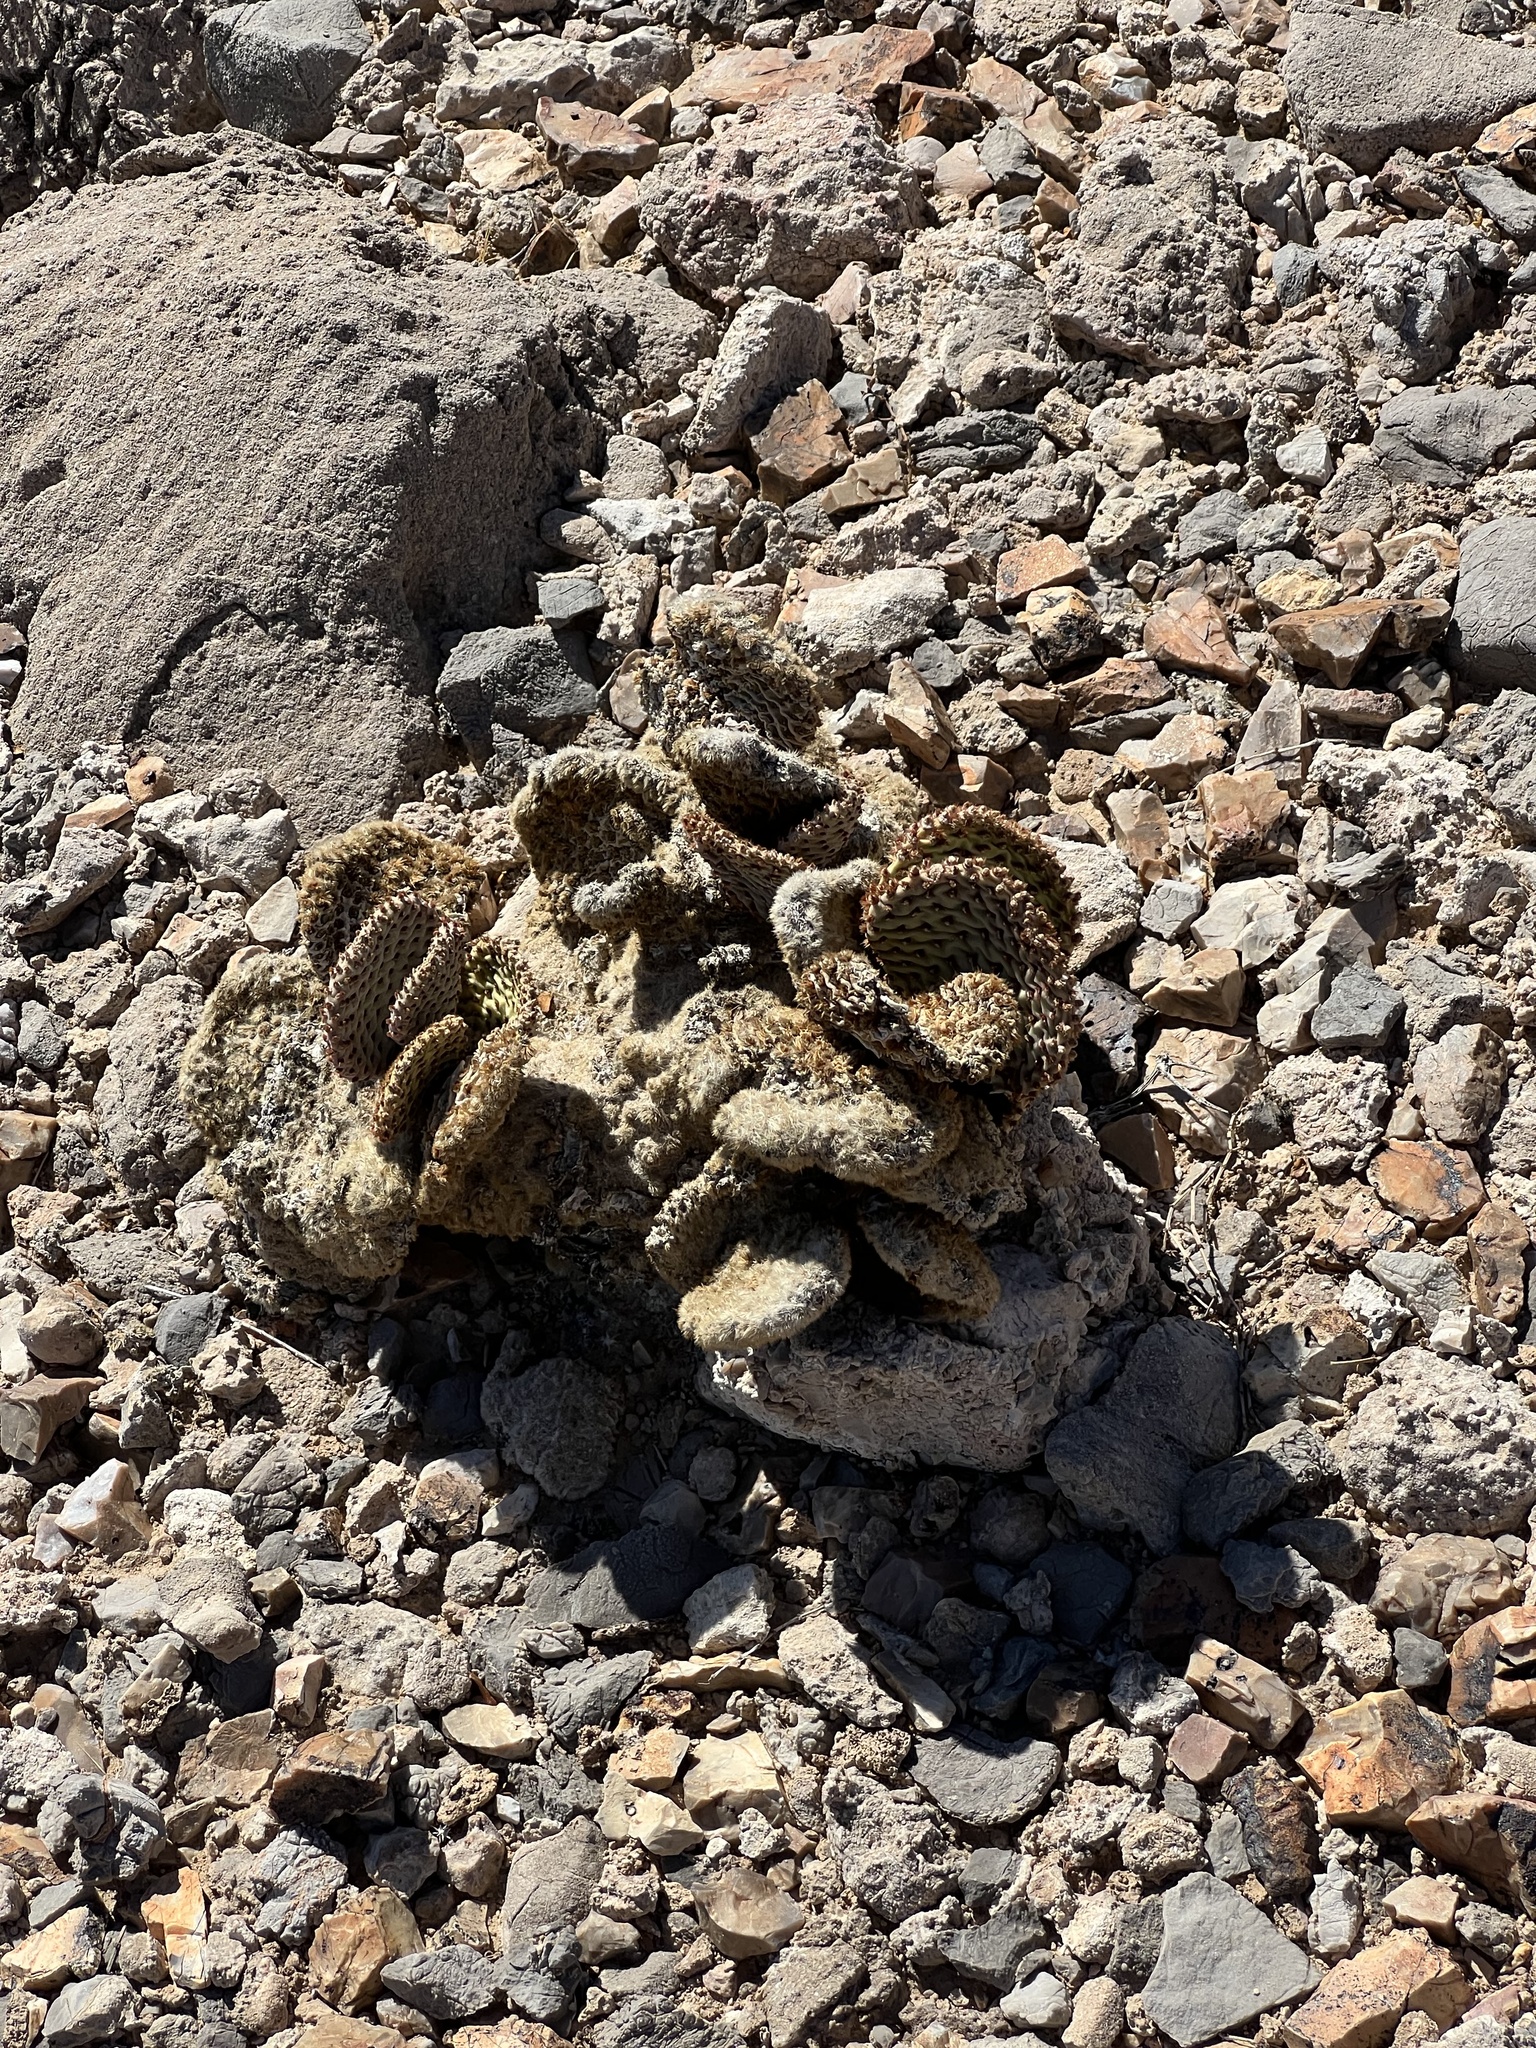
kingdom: Plantae
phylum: Tracheophyta
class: Magnoliopsida
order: Caryophyllales
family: Cactaceae
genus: Opuntia
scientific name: Opuntia basilaris
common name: Beavertail prickly-pear
